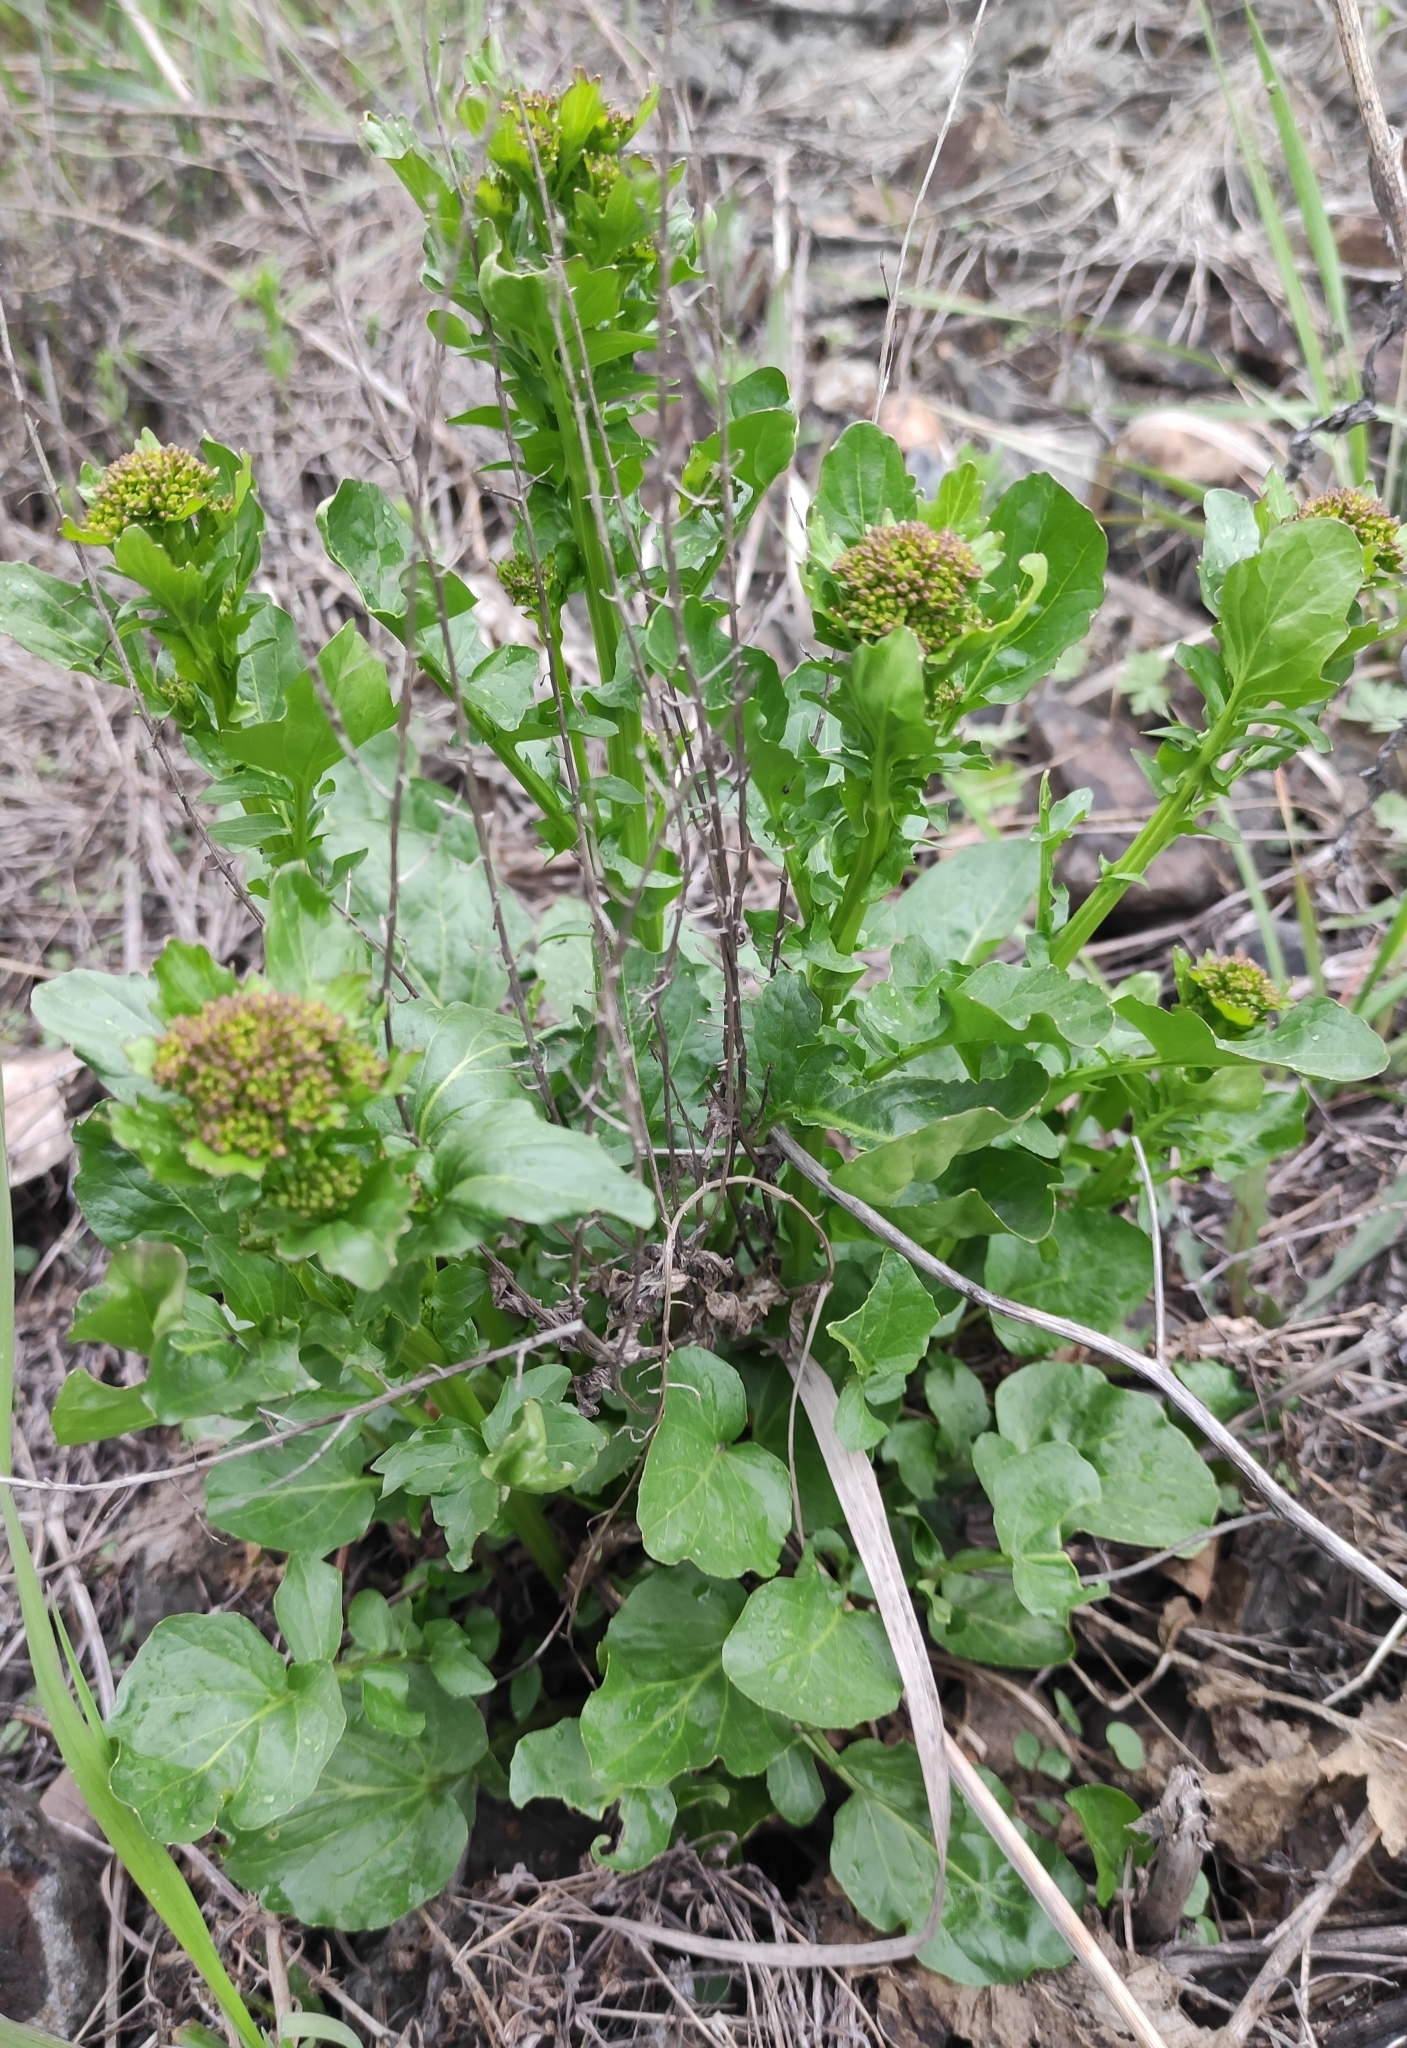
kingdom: Plantae
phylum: Tracheophyta
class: Magnoliopsida
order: Brassicales
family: Brassicaceae
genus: Barbarea
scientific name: Barbarea vulgaris
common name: Cressy-greens
